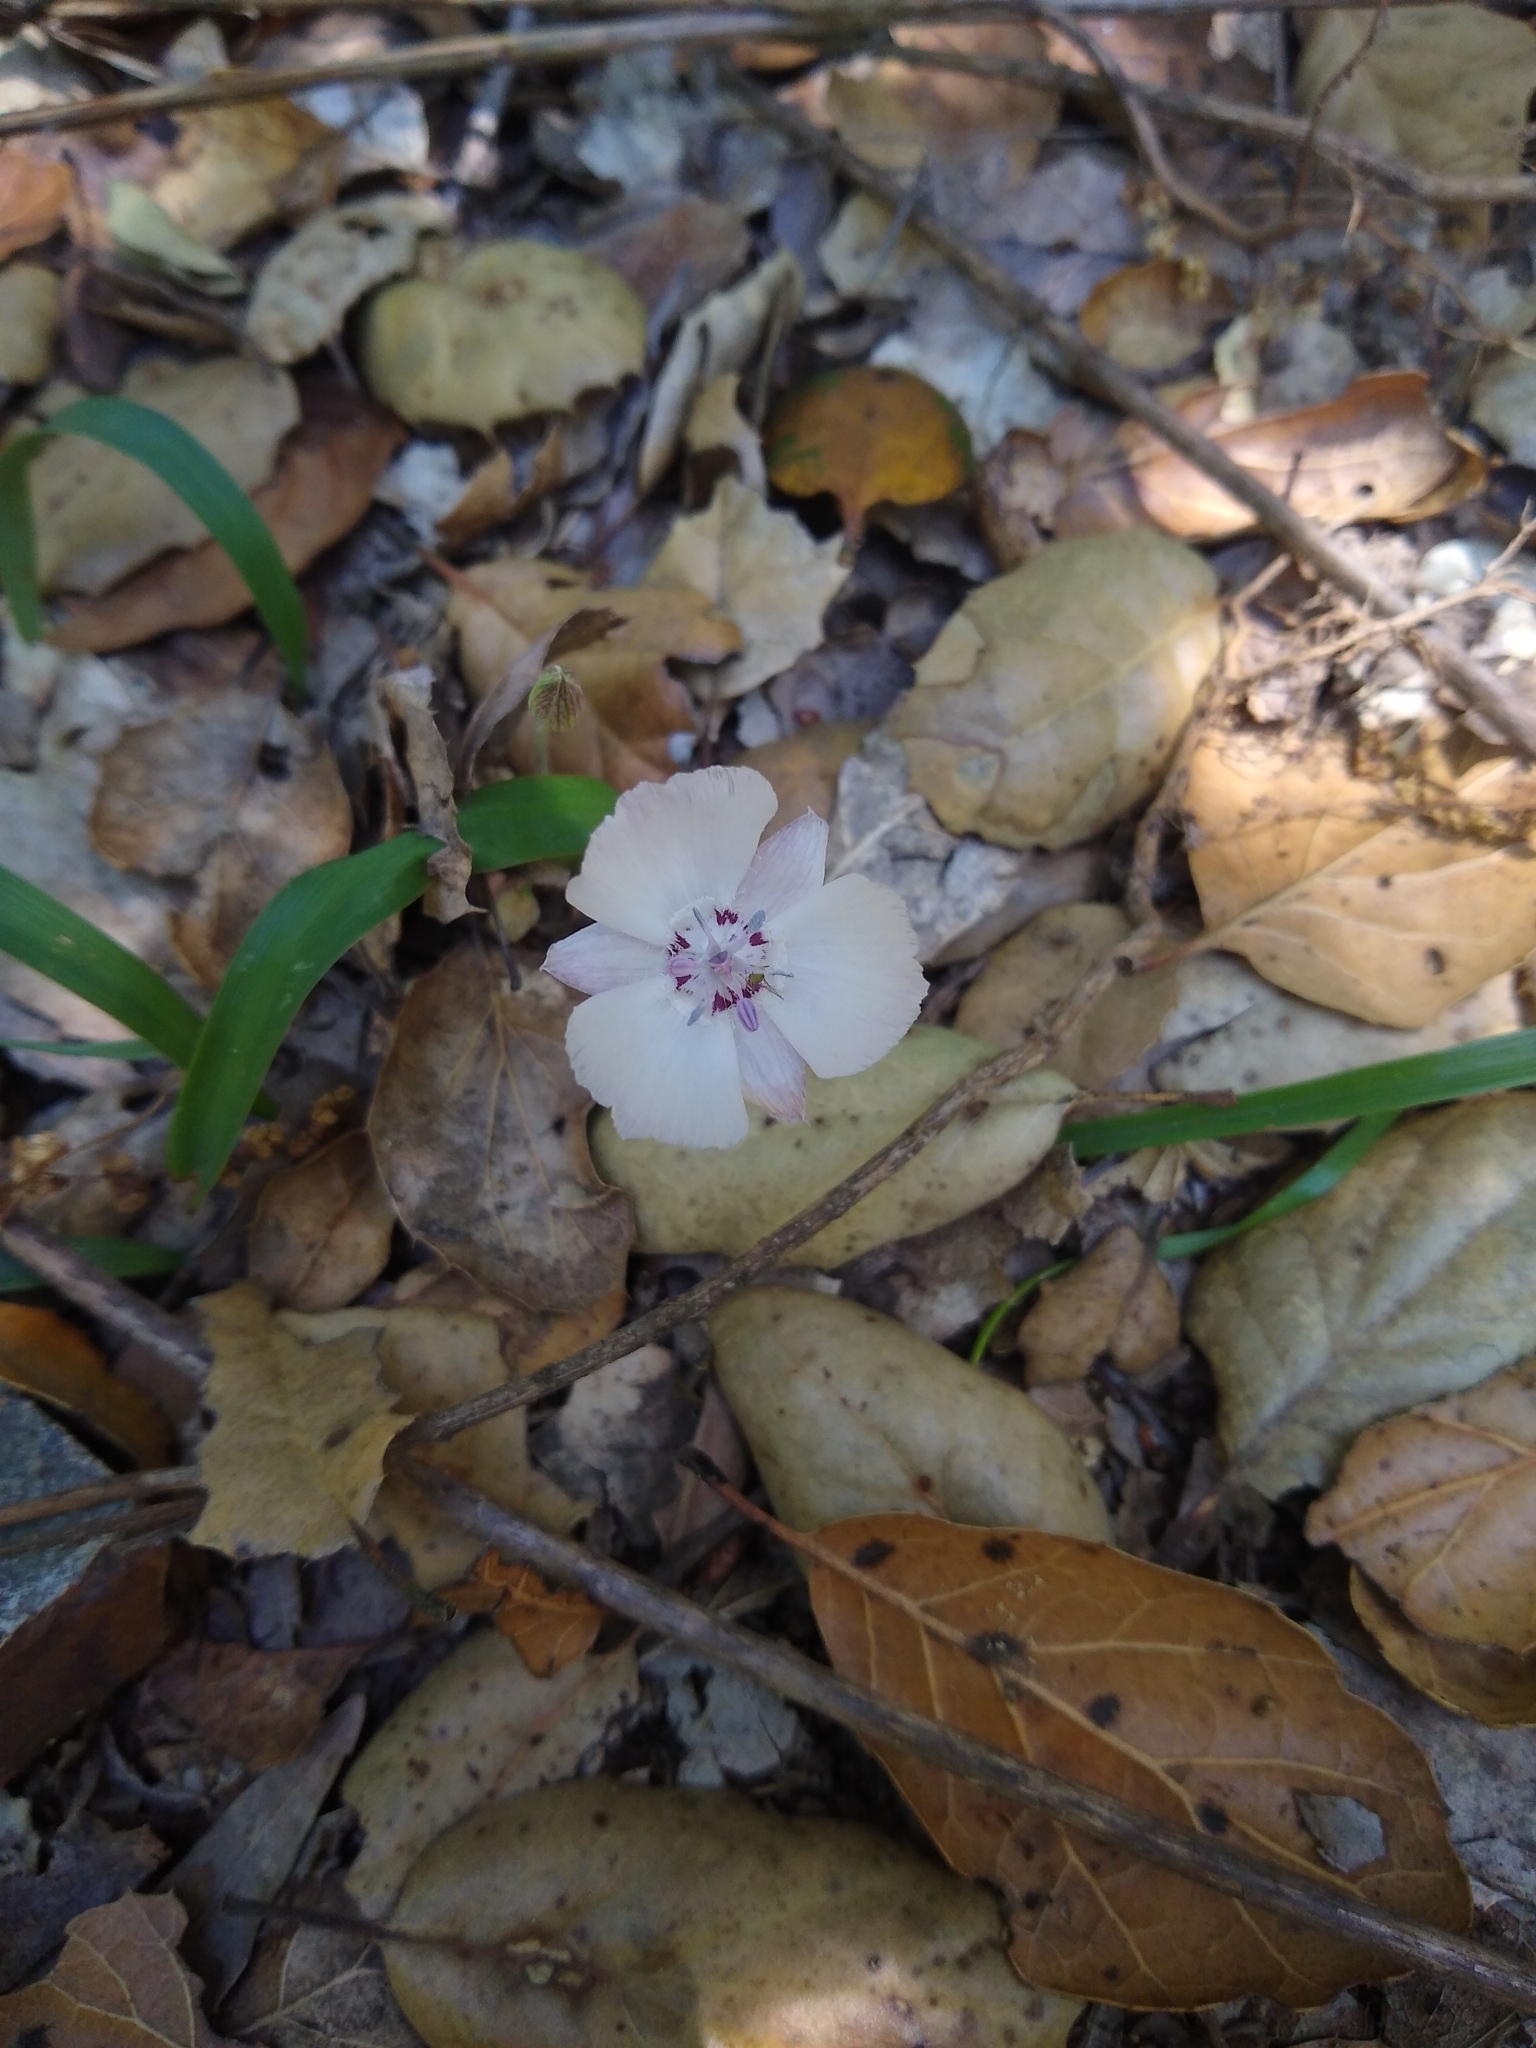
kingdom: Plantae
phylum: Tracheophyta
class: Liliopsida
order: Liliales
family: Liliaceae
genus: Calochortus
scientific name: Calochortus umbellatus
